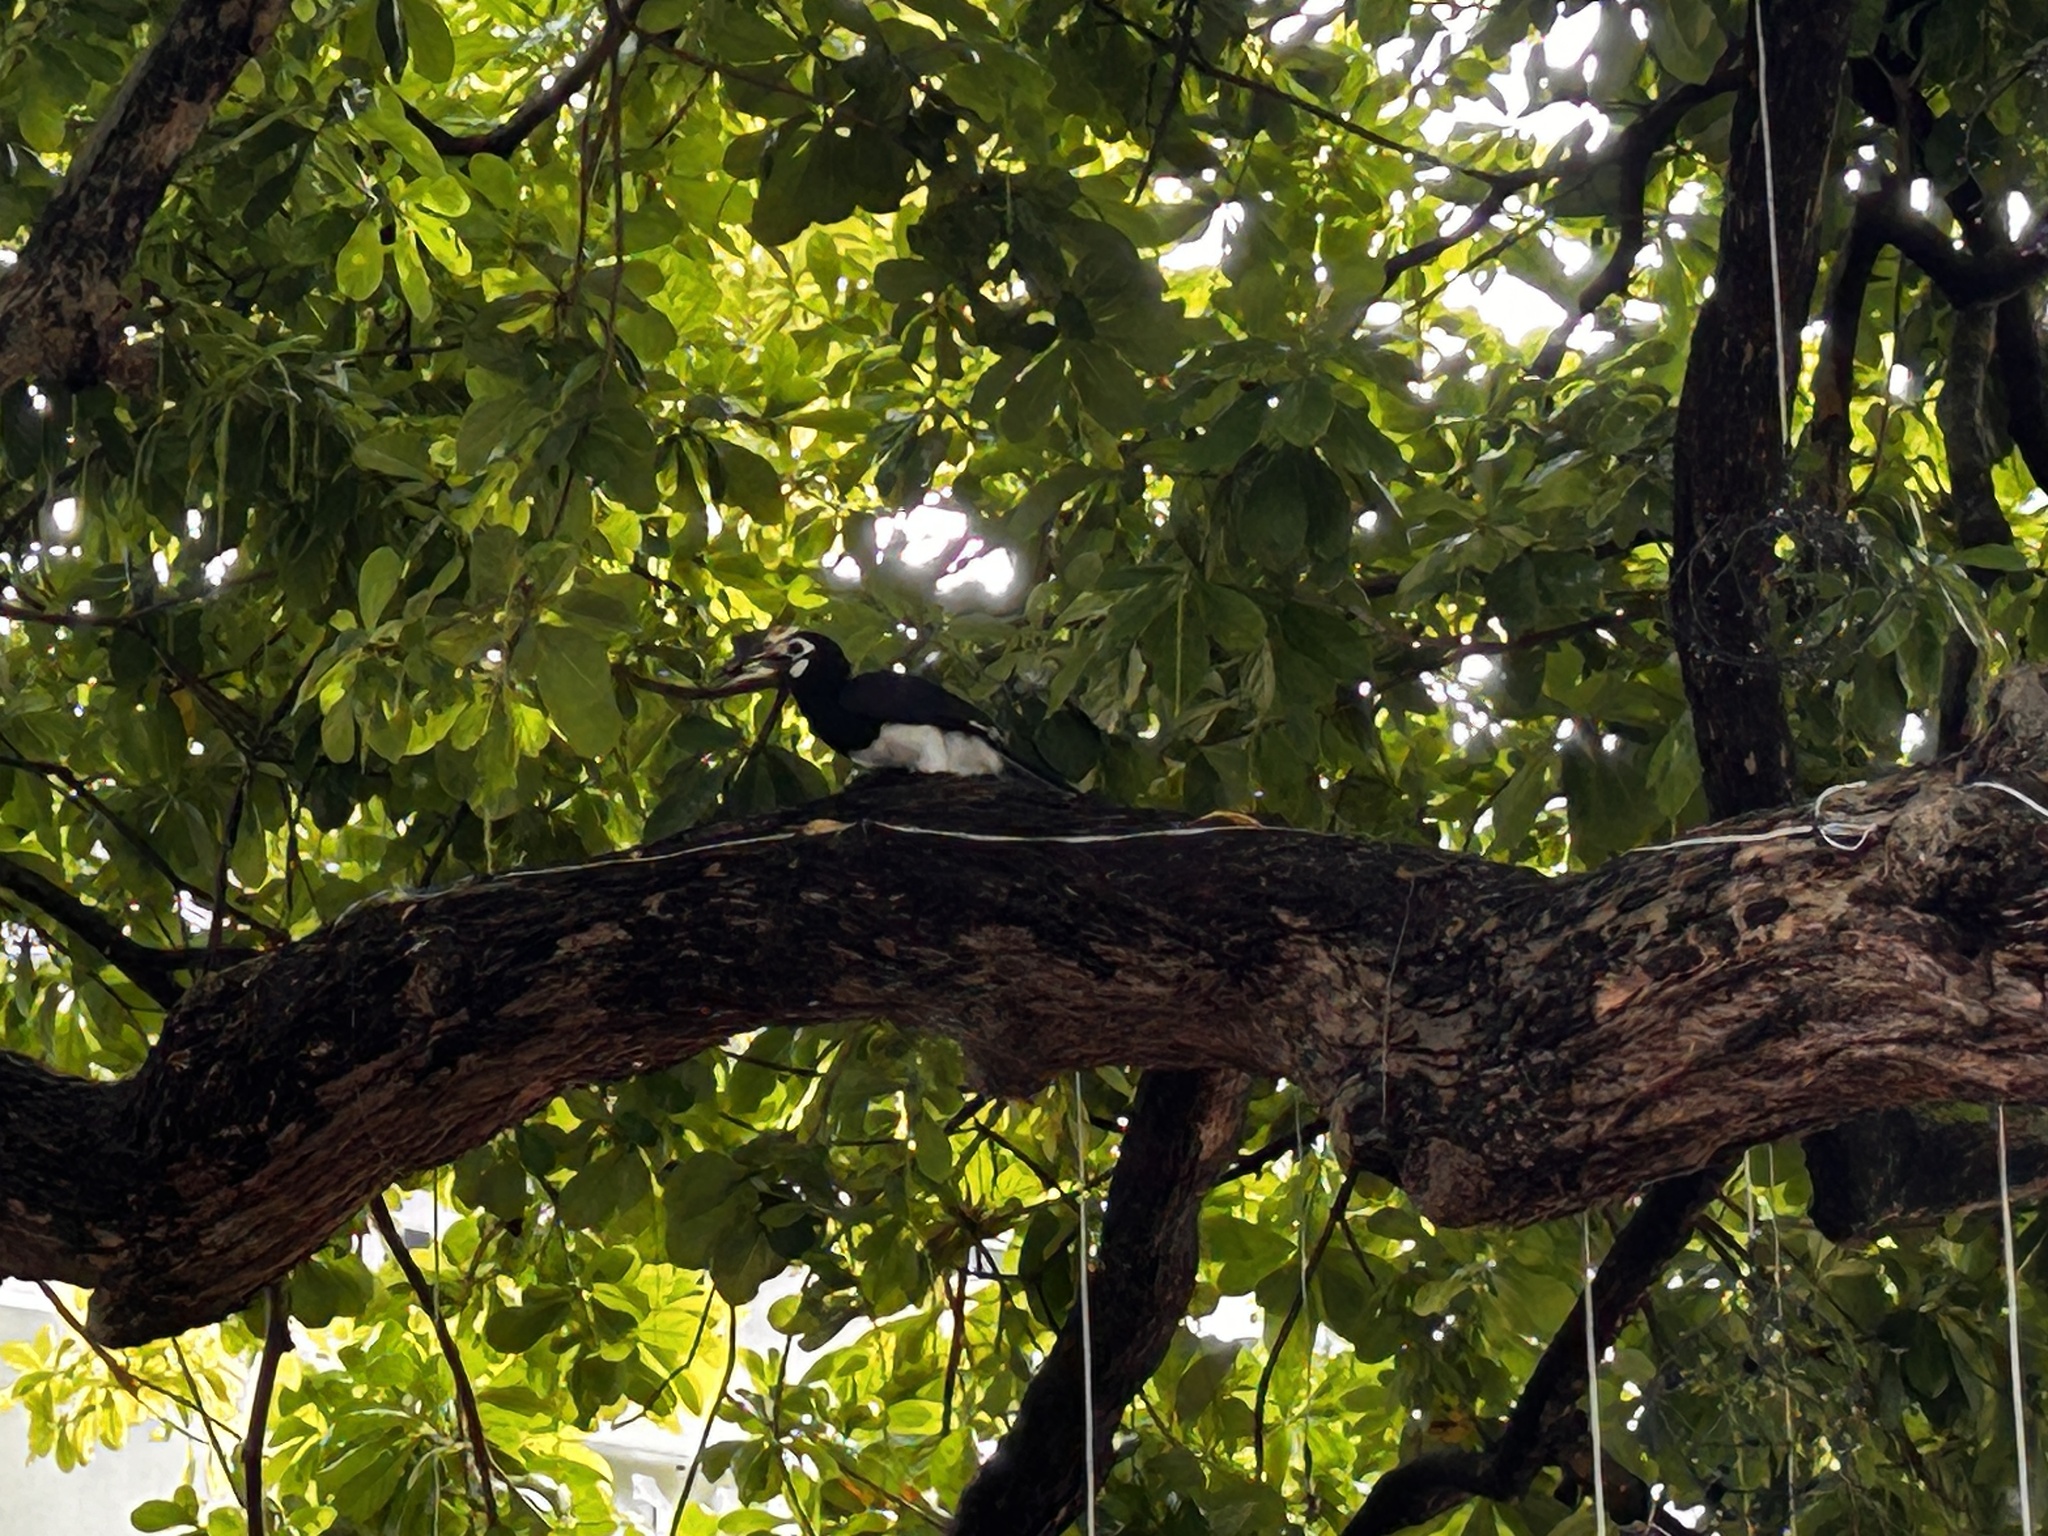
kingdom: Animalia
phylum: Chordata
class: Aves
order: Bucerotiformes
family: Bucerotidae
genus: Anthracoceros
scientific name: Anthracoceros albirostris
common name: Oriental pied-hornbill
